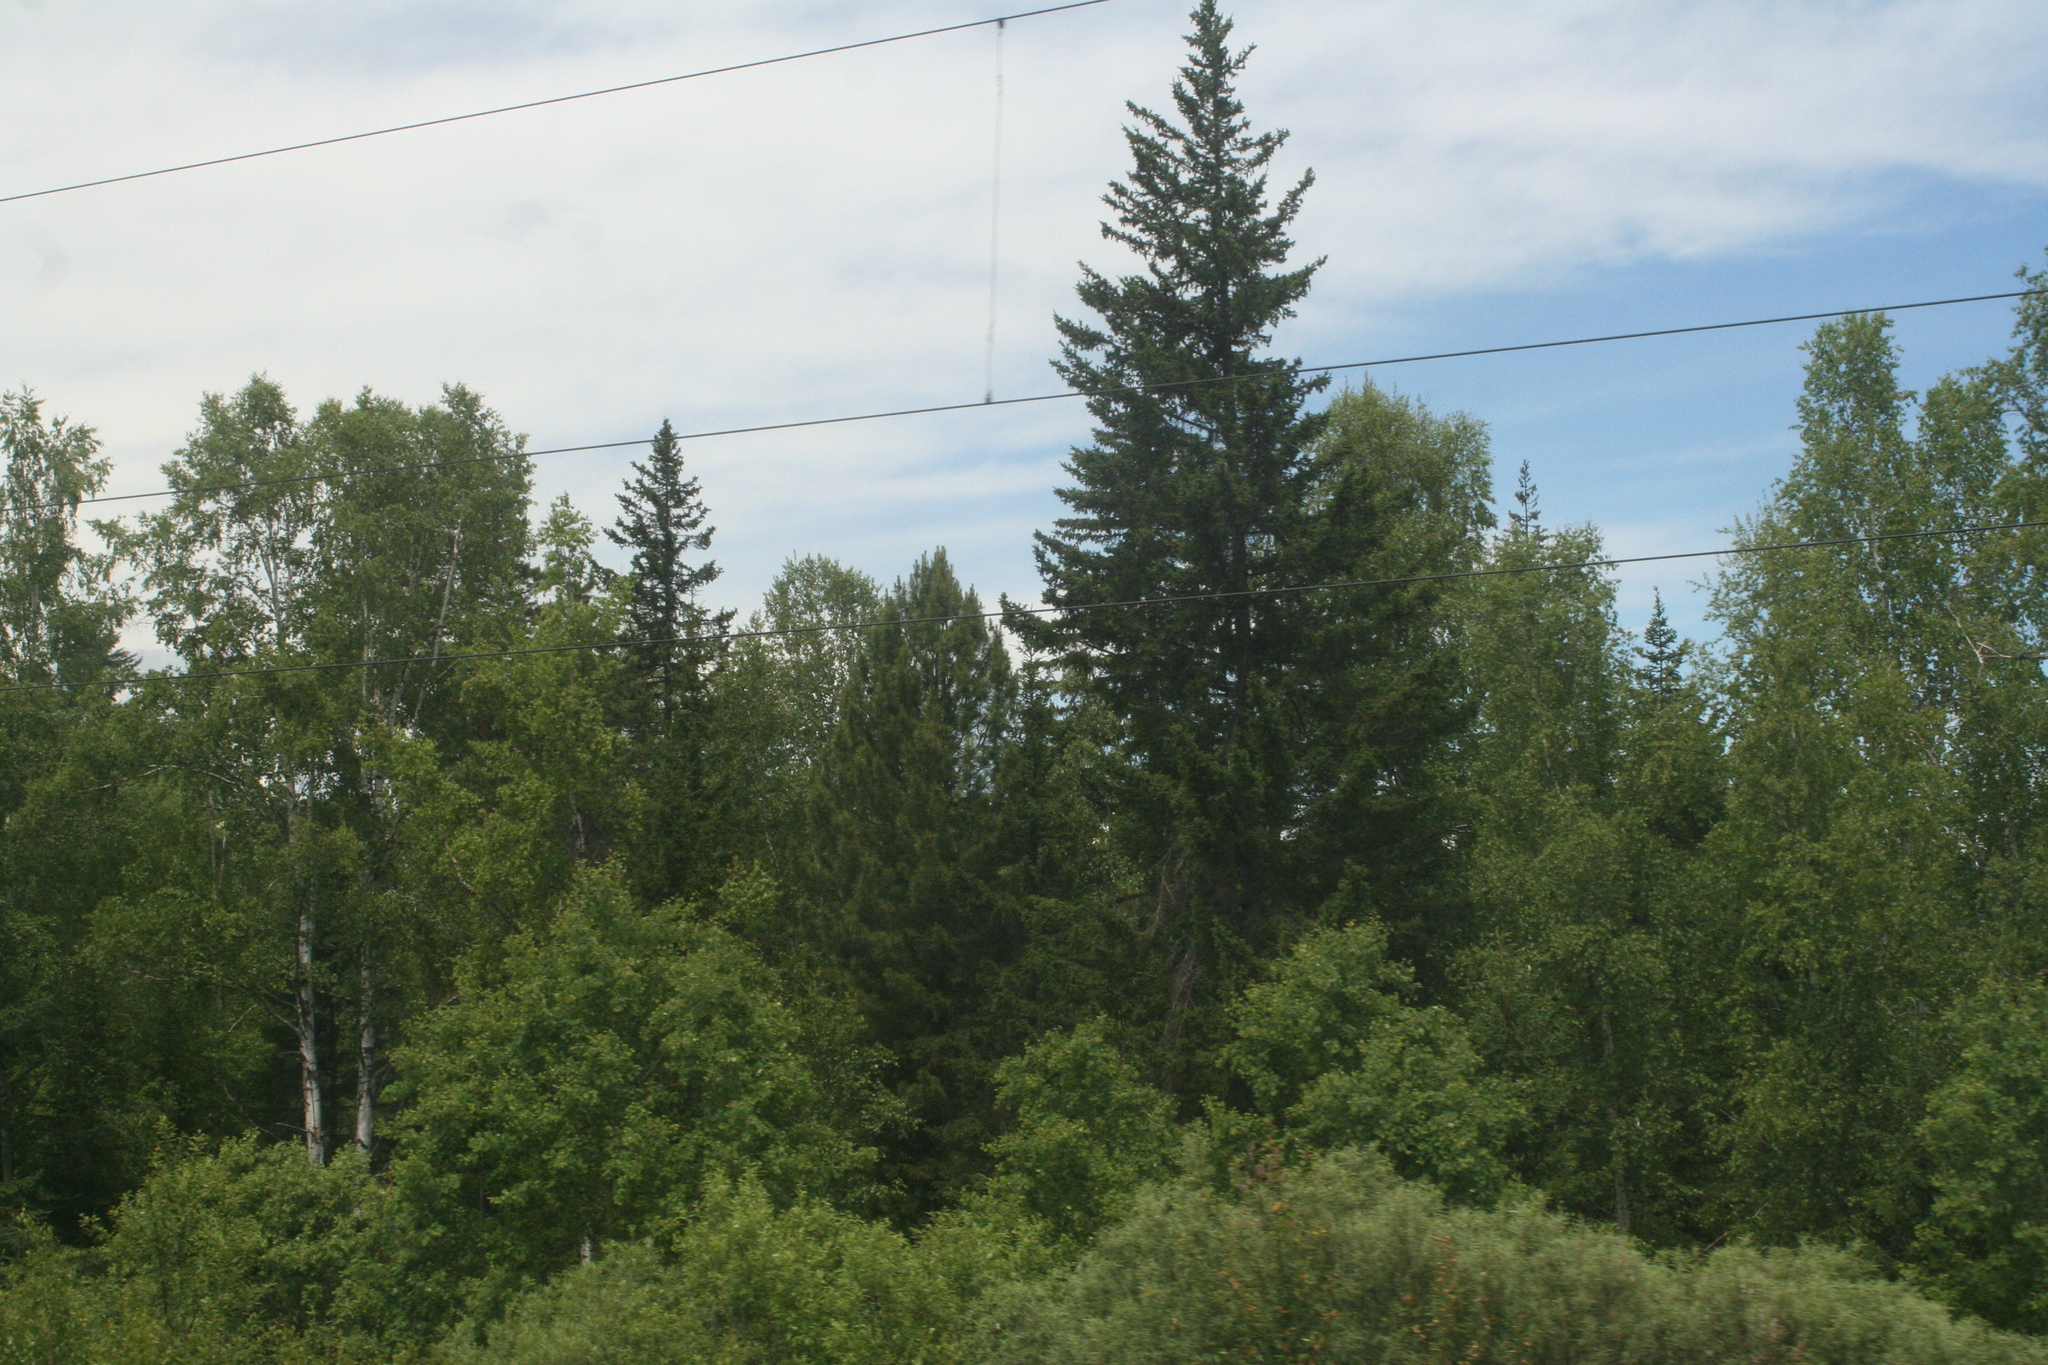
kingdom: Plantae
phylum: Tracheophyta
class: Pinopsida
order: Pinales
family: Pinaceae
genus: Picea
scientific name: Picea obovata
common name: Siberian spruce
